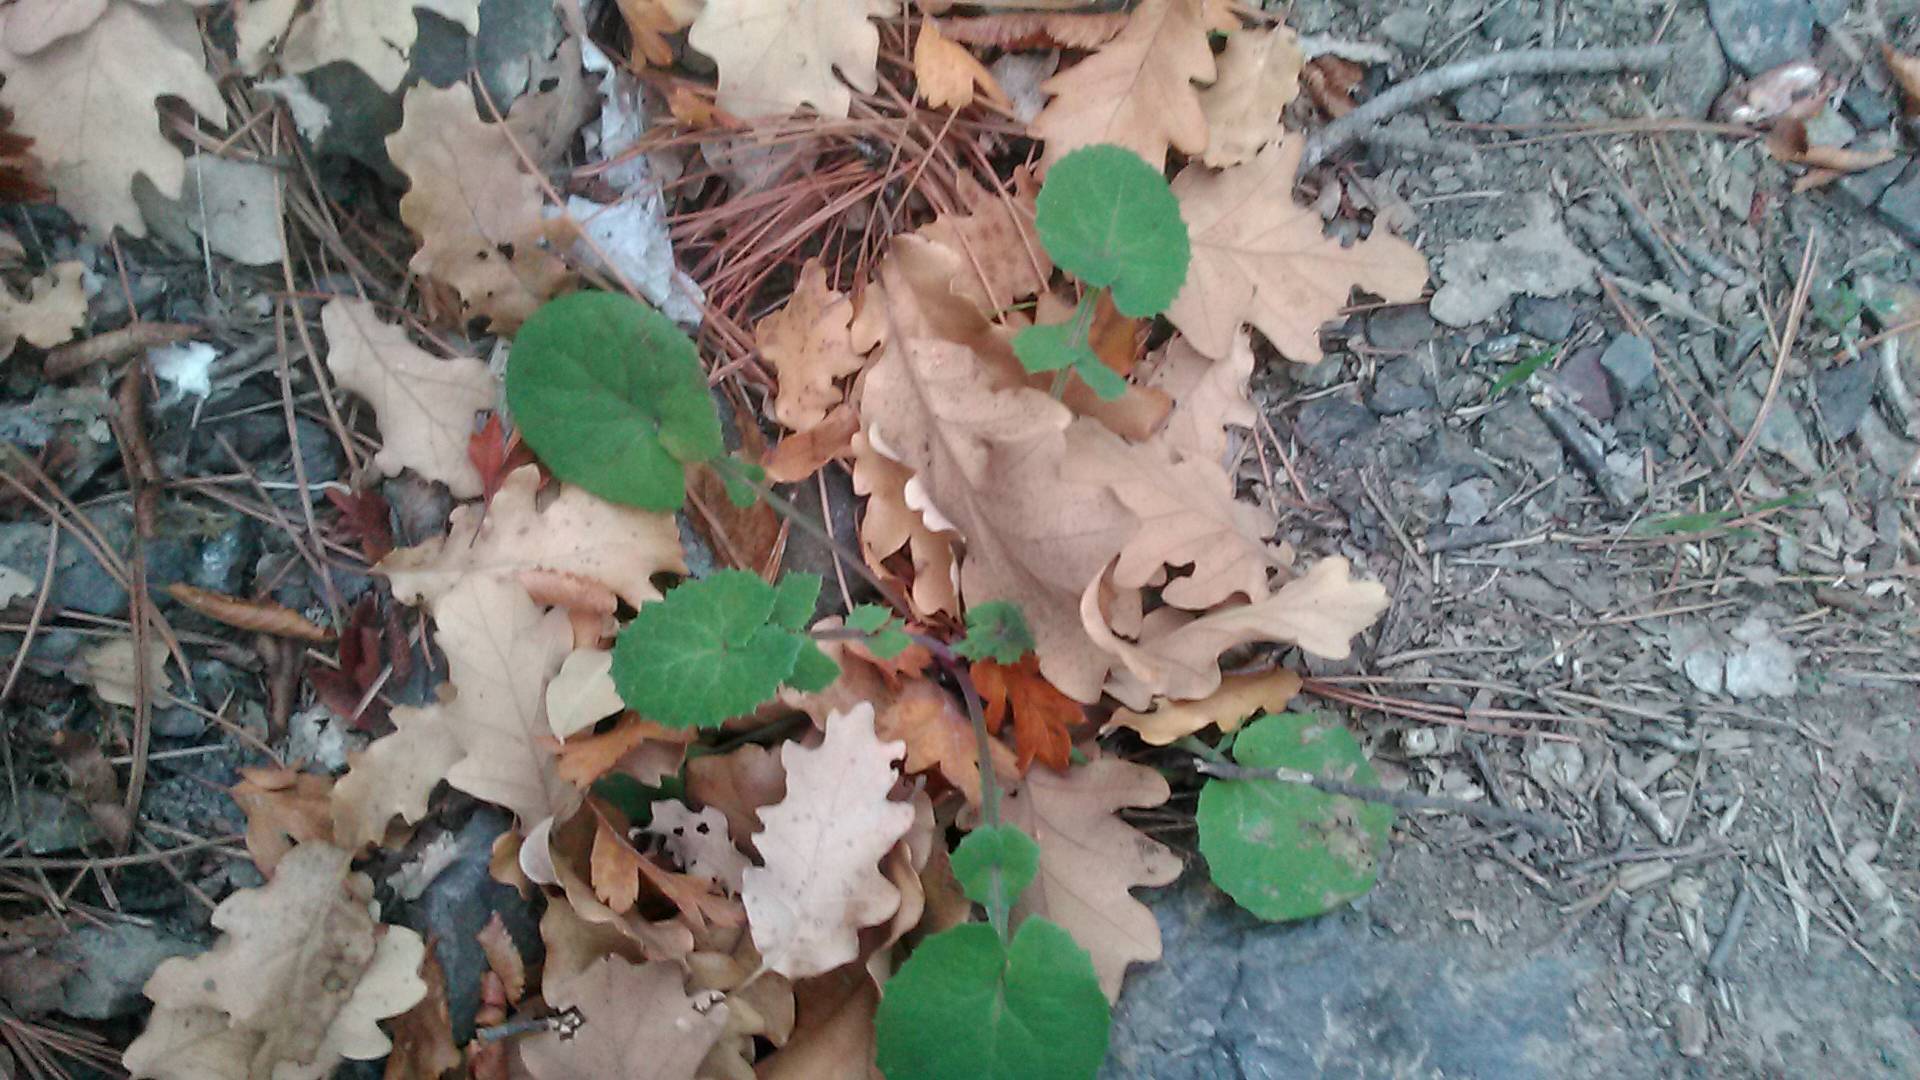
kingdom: Plantae
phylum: Tracheophyta
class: Magnoliopsida
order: Asterales
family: Asteraceae
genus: Sonchus
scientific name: Sonchus
